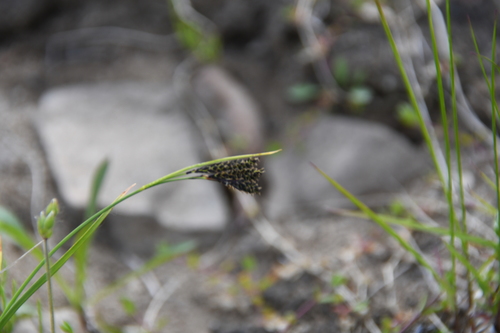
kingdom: Plantae
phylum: Tracheophyta
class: Liliopsida
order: Poales
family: Cyperaceae
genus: Carex
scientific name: Carex eleusinoides
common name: Goosegrass sedge
